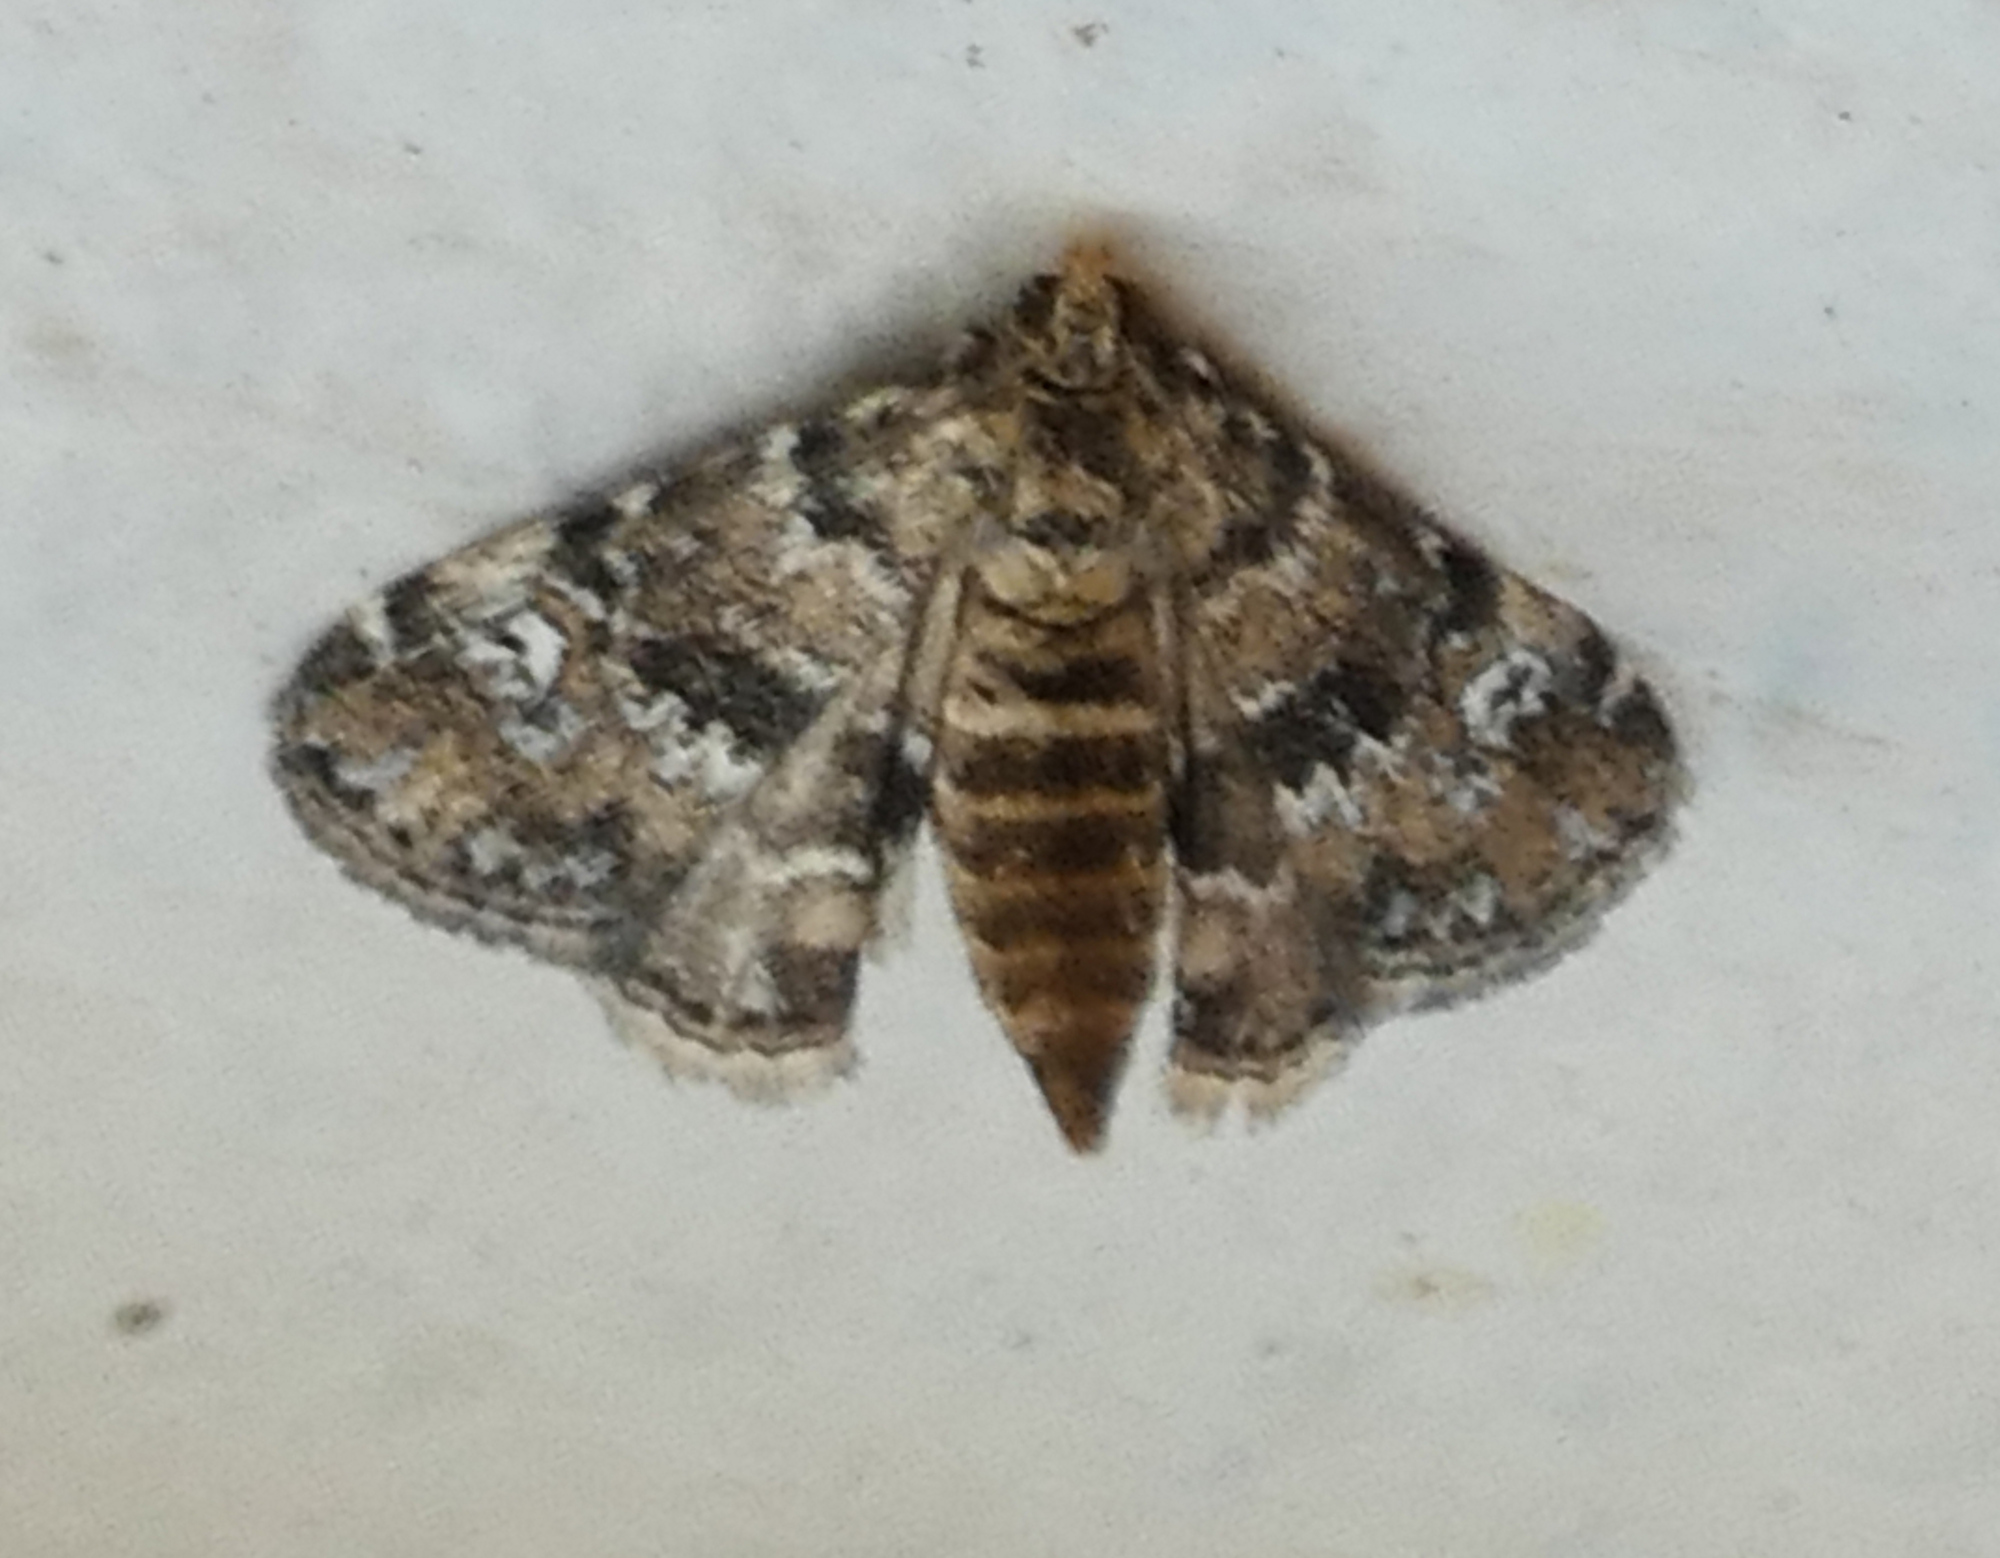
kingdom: Animalia
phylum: Arthropoda
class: Insecta
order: Lepidoptera
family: Crambidae
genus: Elophila
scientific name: Elophila obliteralis
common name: Waterlily leafcutter moth
